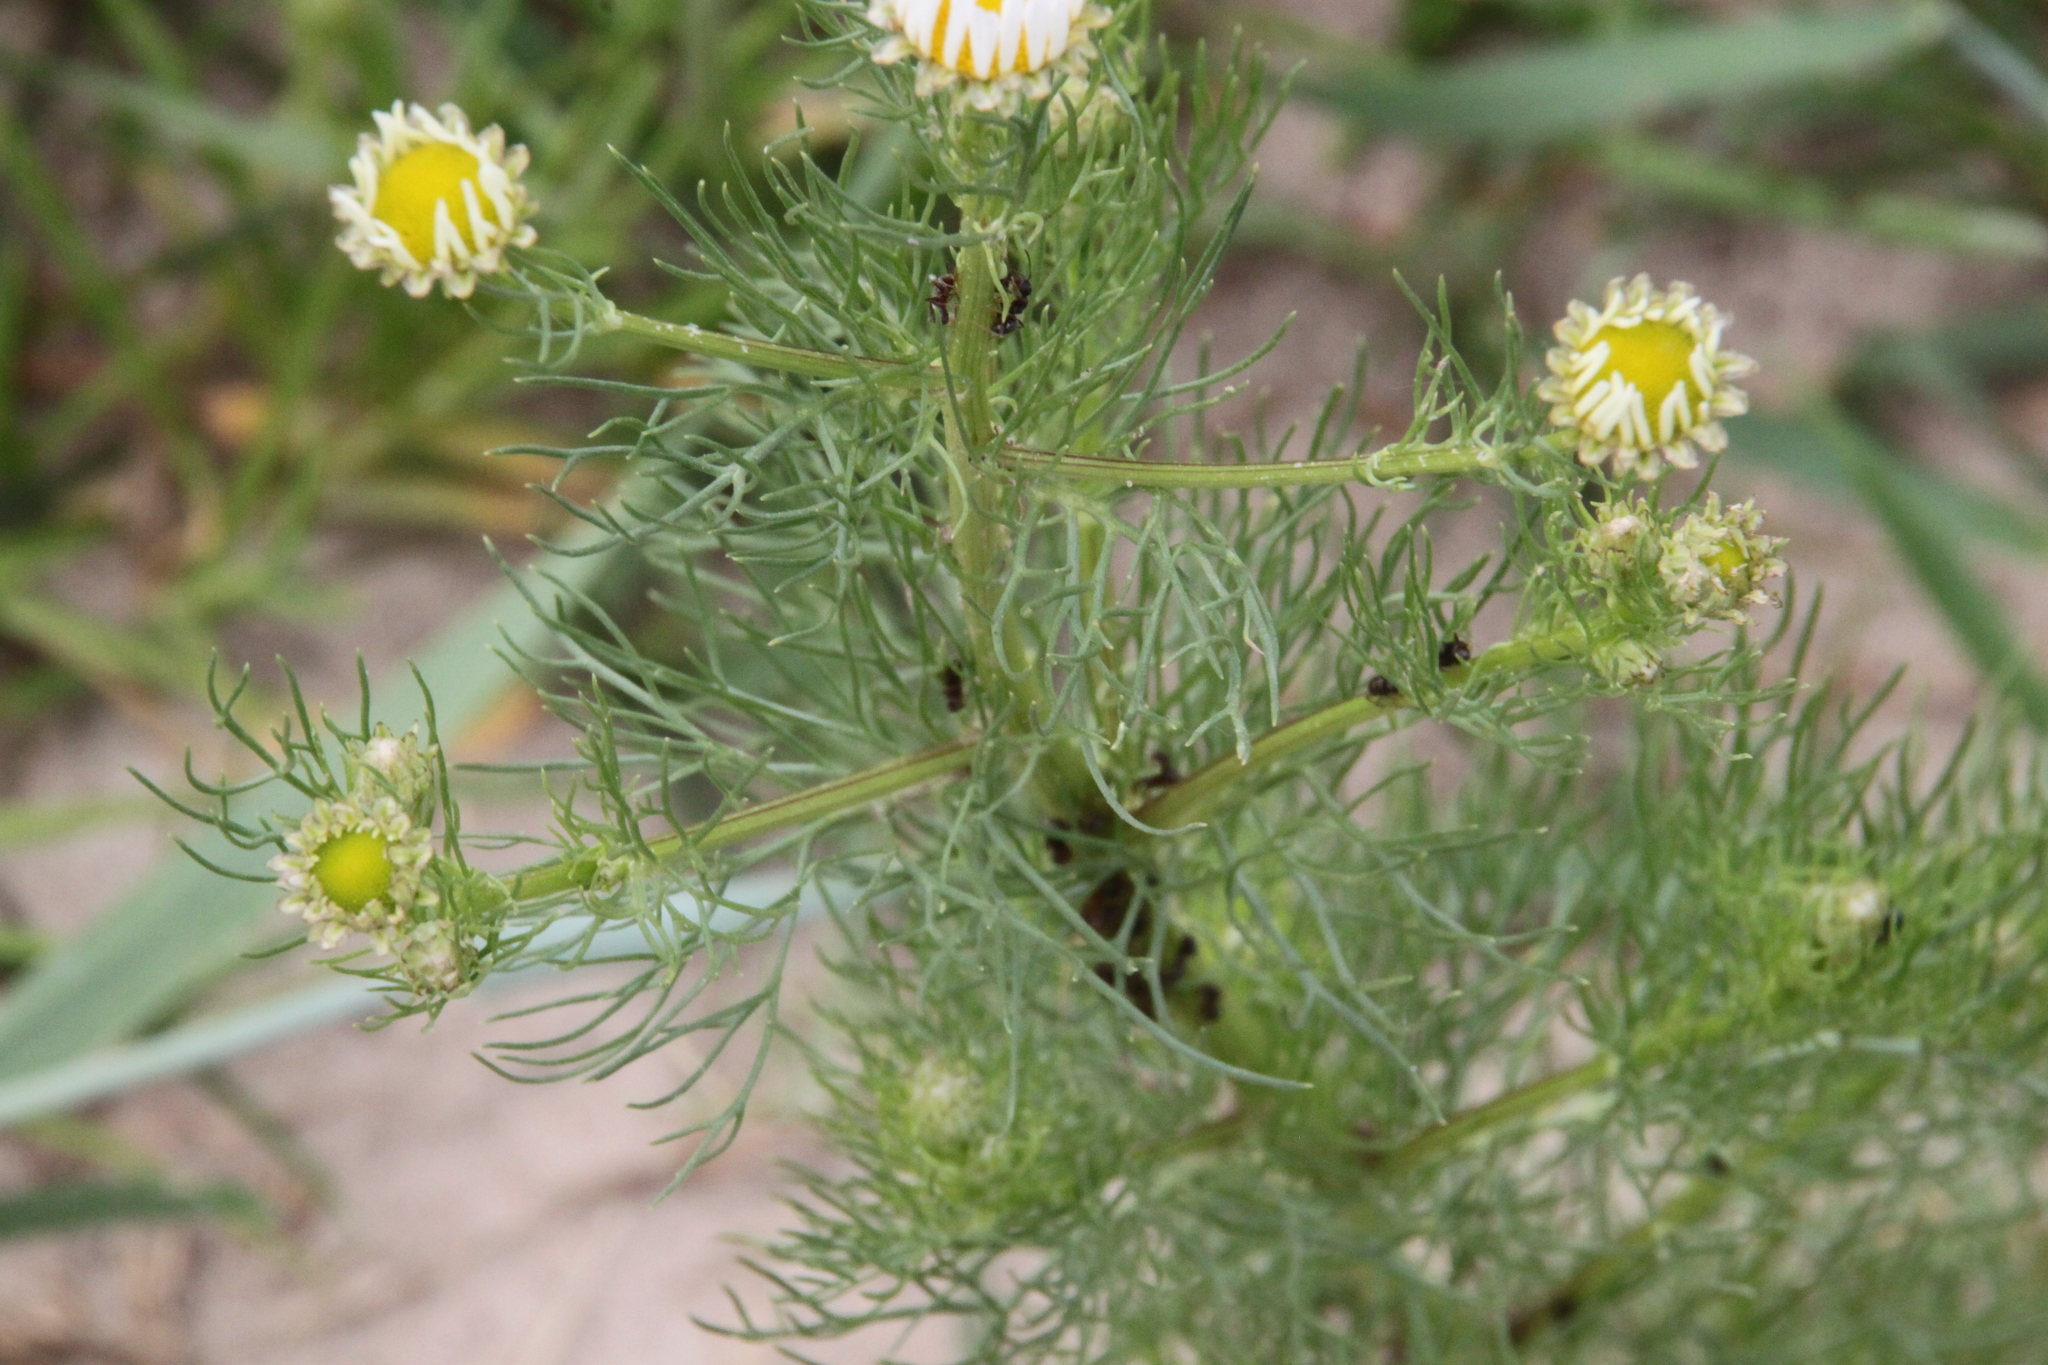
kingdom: Plantae
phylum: Tracheophyta
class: Magnoliopsida
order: Asterales
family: Asteraceae
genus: Tripleurospermum
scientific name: Tripleurospermum inodorum
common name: Scentless mayweed
